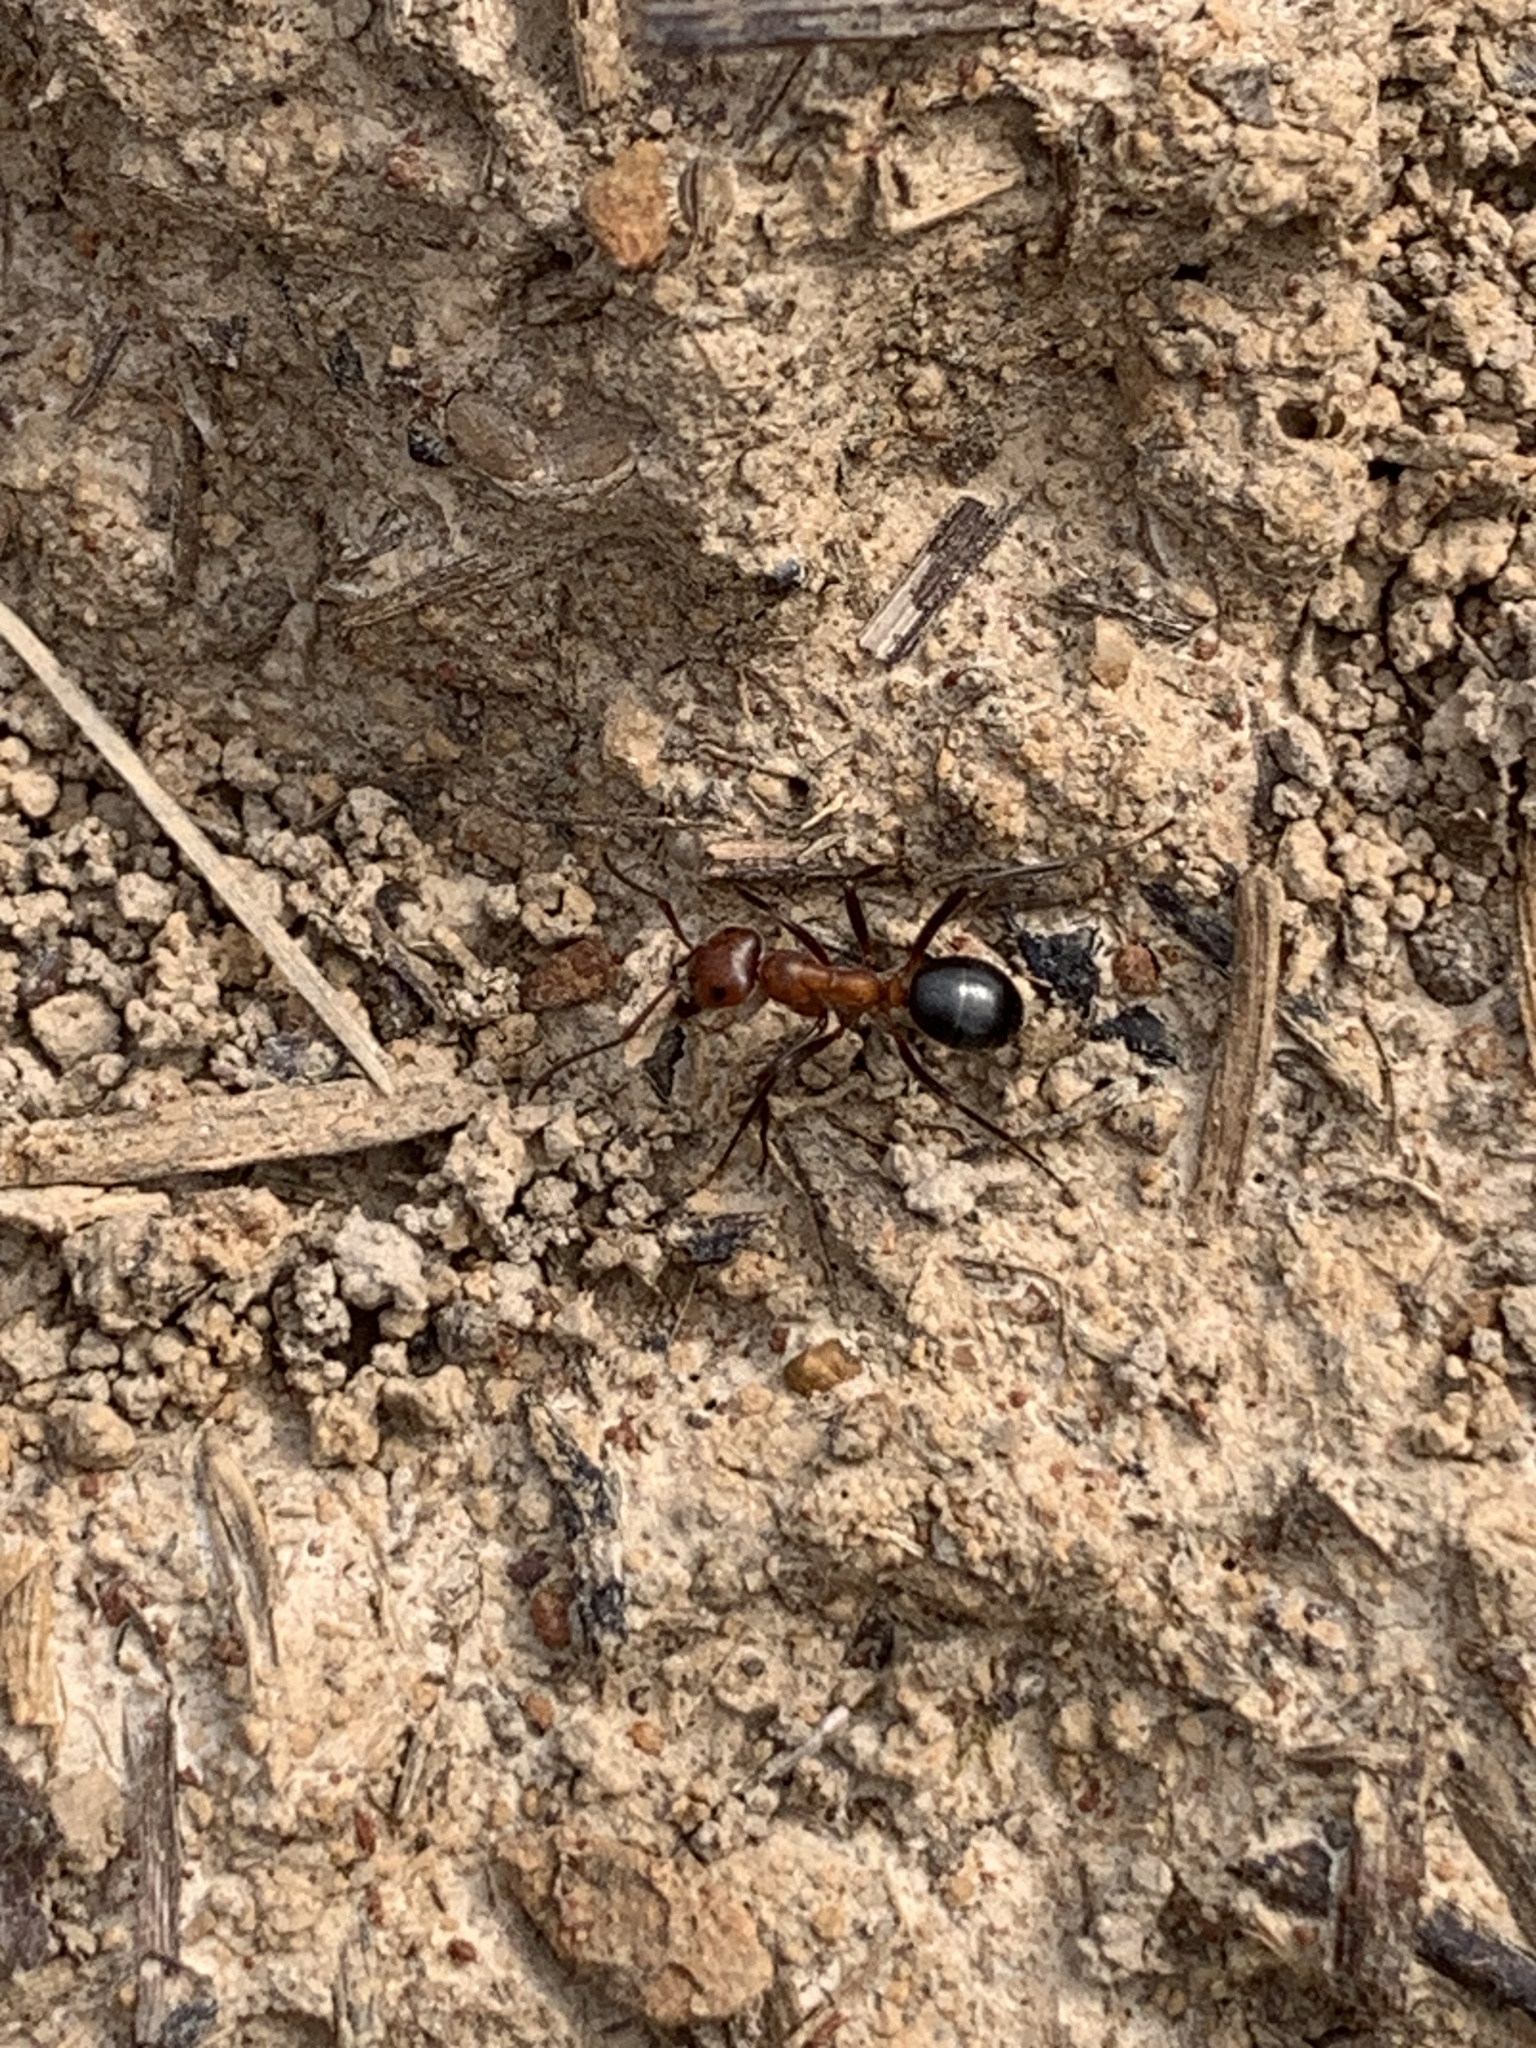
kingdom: Animalia
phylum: Arthropoda
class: Insecta
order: Hymenoptera
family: Formicidae
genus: Formica
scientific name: Formica exsectoides
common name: Allegheny mound ant
